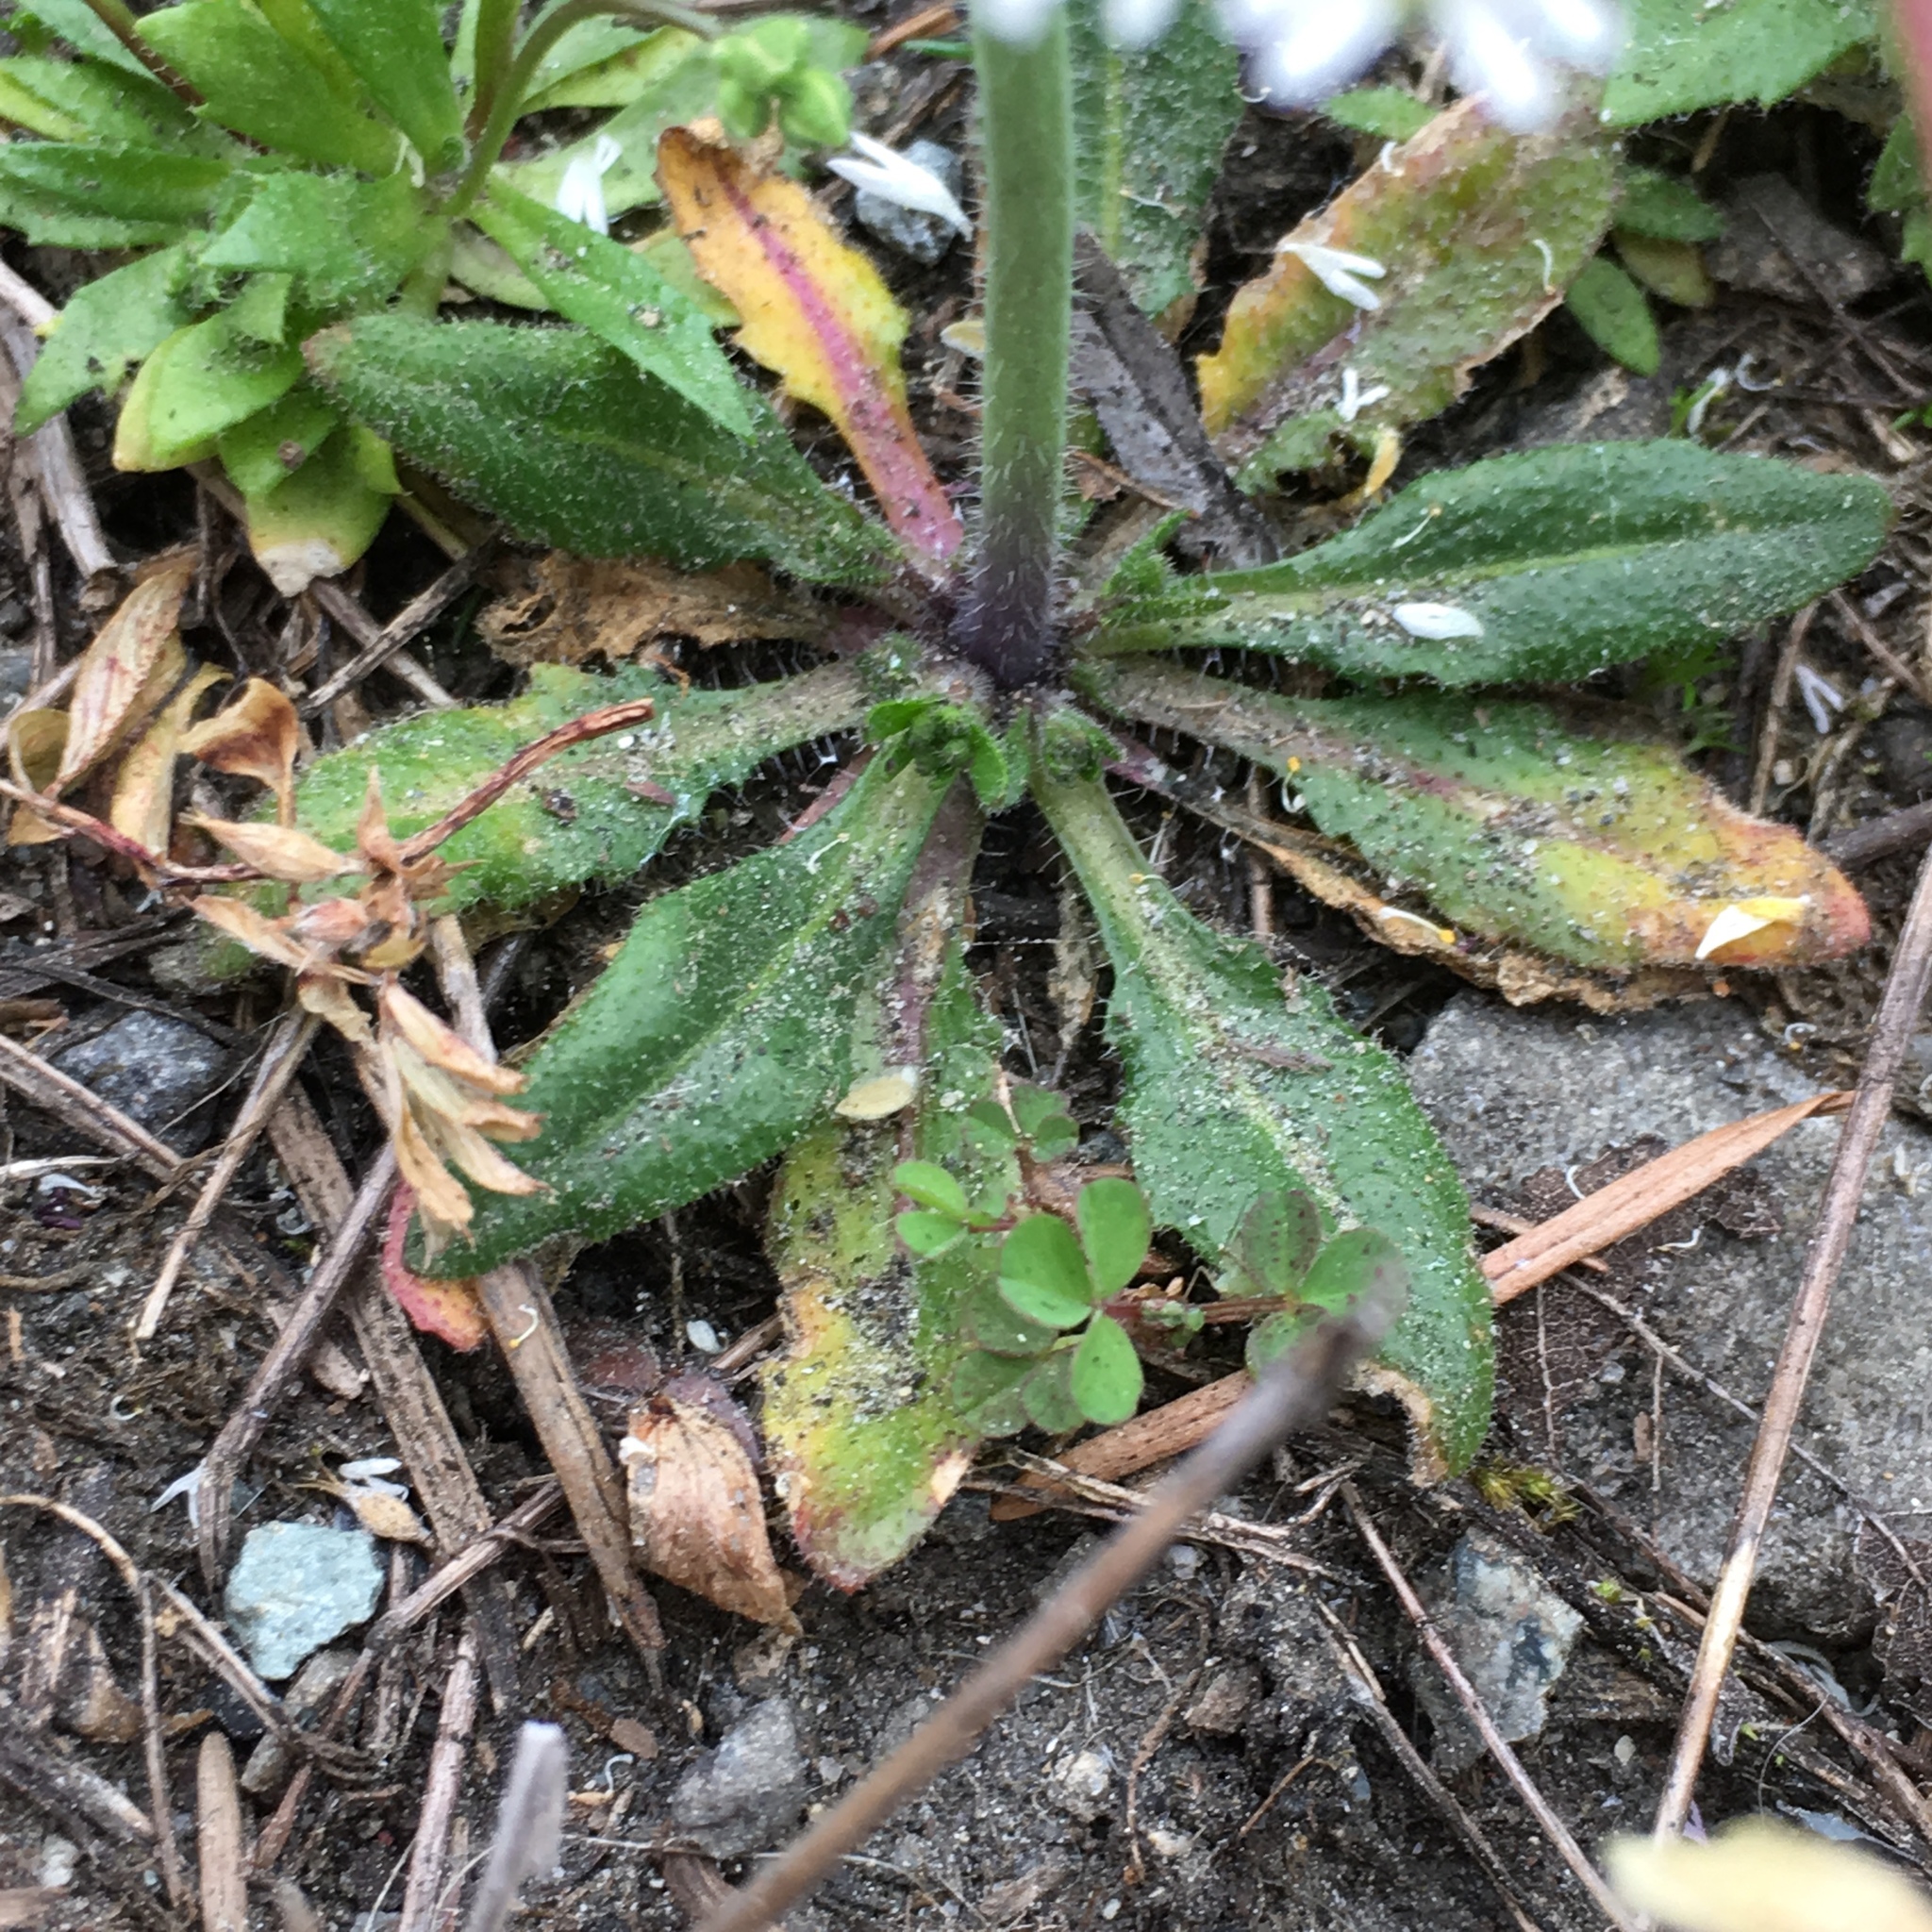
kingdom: Plantae
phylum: Tracheophyta
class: Magnoliopsida
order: Brassicales
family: Brassicaceae
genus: Arabidopsis
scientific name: Arabidopsis thaliana
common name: Thale cress
